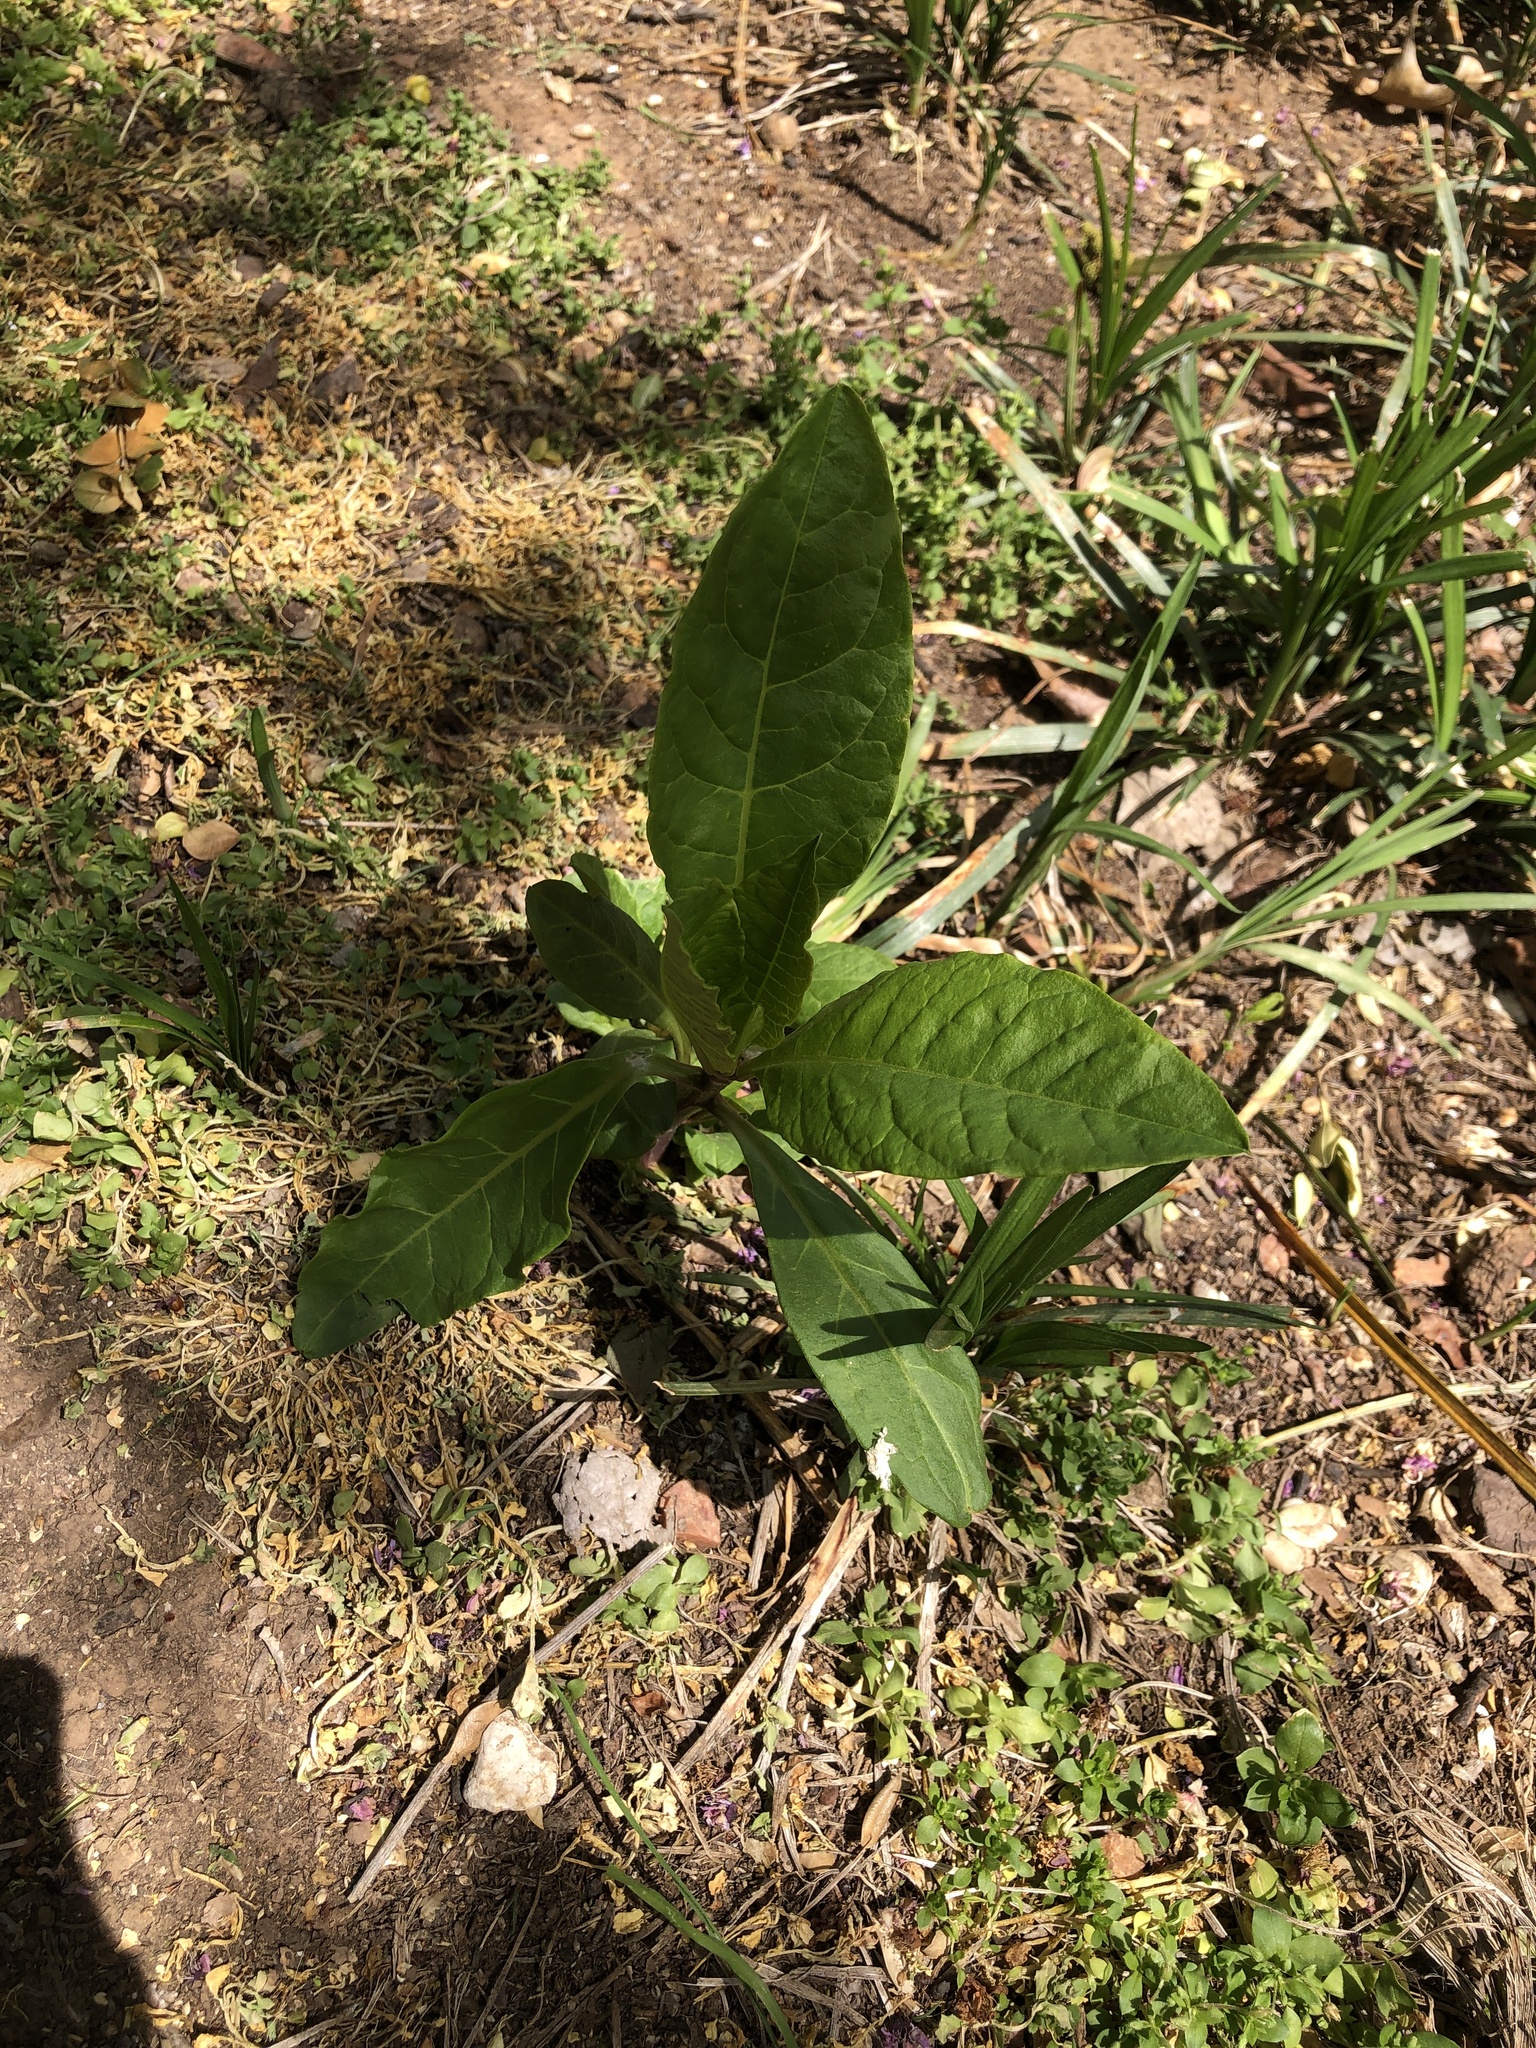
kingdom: Plantae
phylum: Tracheophyta
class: Magnoliopsida
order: Caryophyllales
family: Phytolaccaceae
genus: Phytolacca
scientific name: Phytolacca americana
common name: American pokeweed
